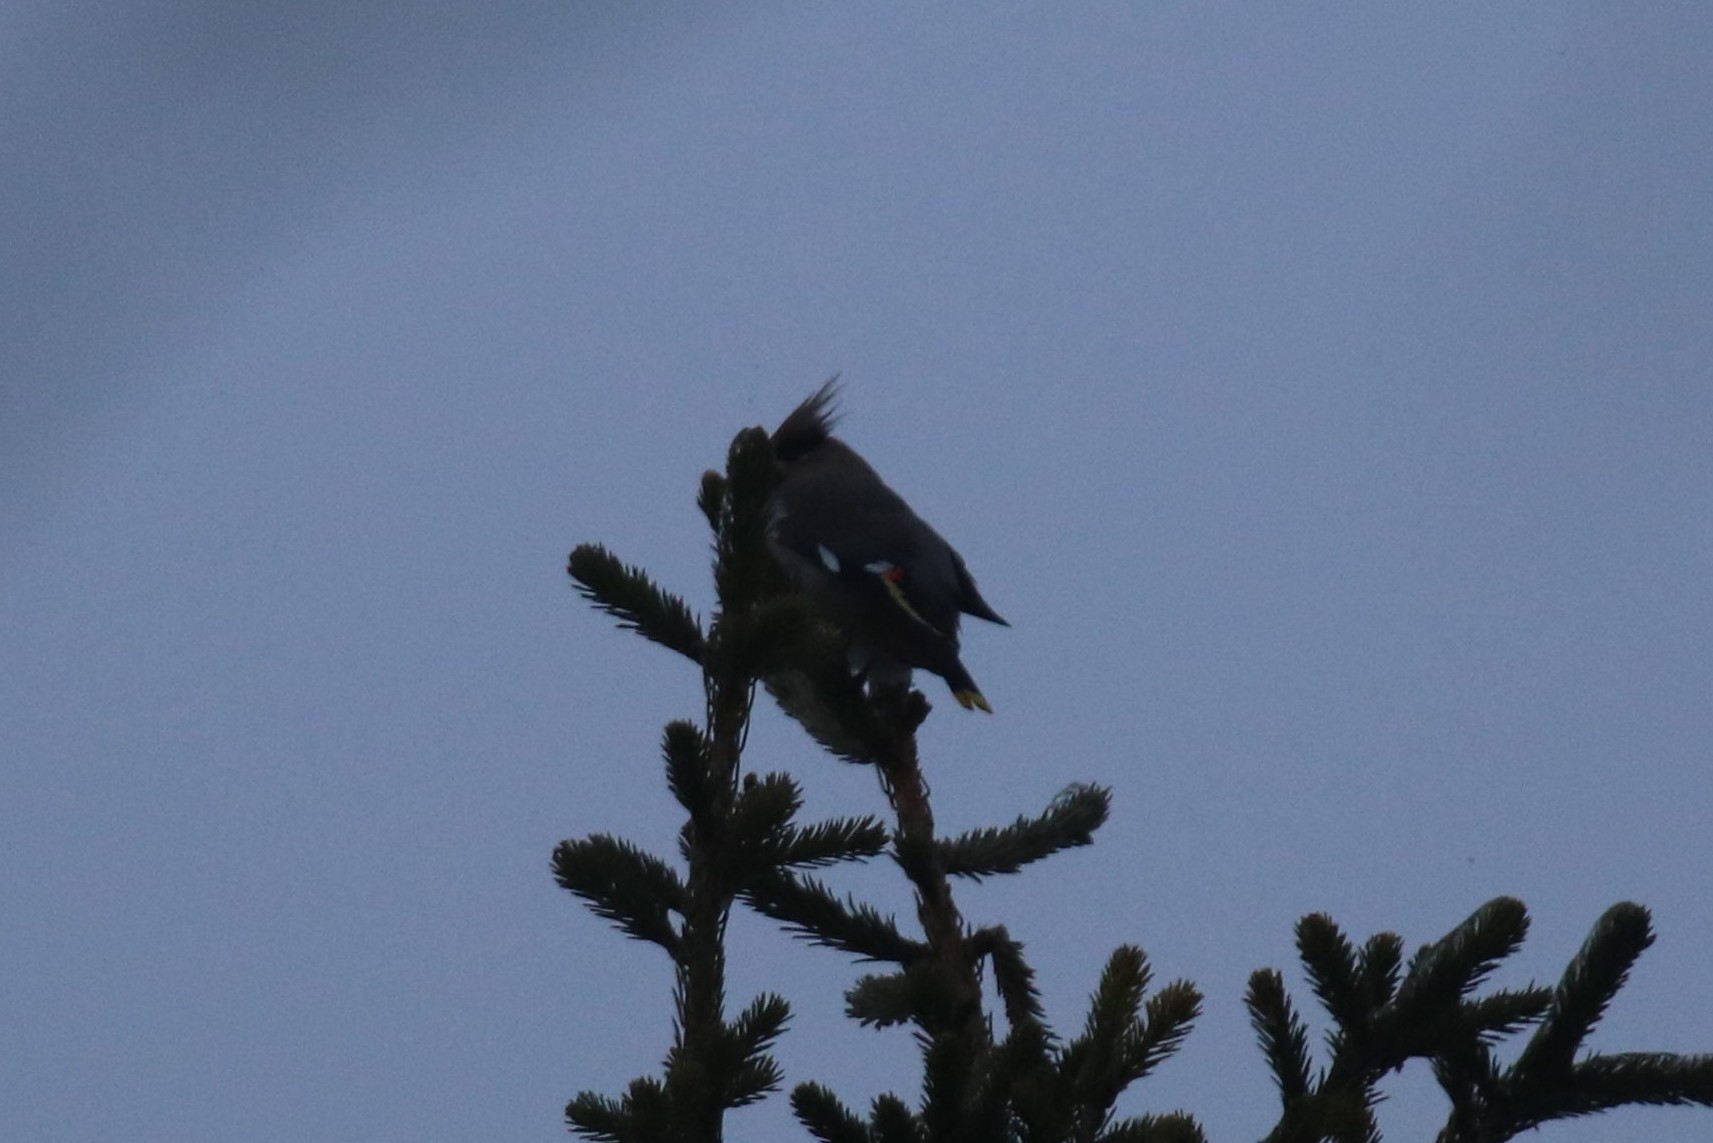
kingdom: Animalia
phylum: Chordata
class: Aves
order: Passeriformes
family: Bombycillidae
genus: Bombycilla
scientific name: Bombycilla garrulus
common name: Bohemian waxwing
